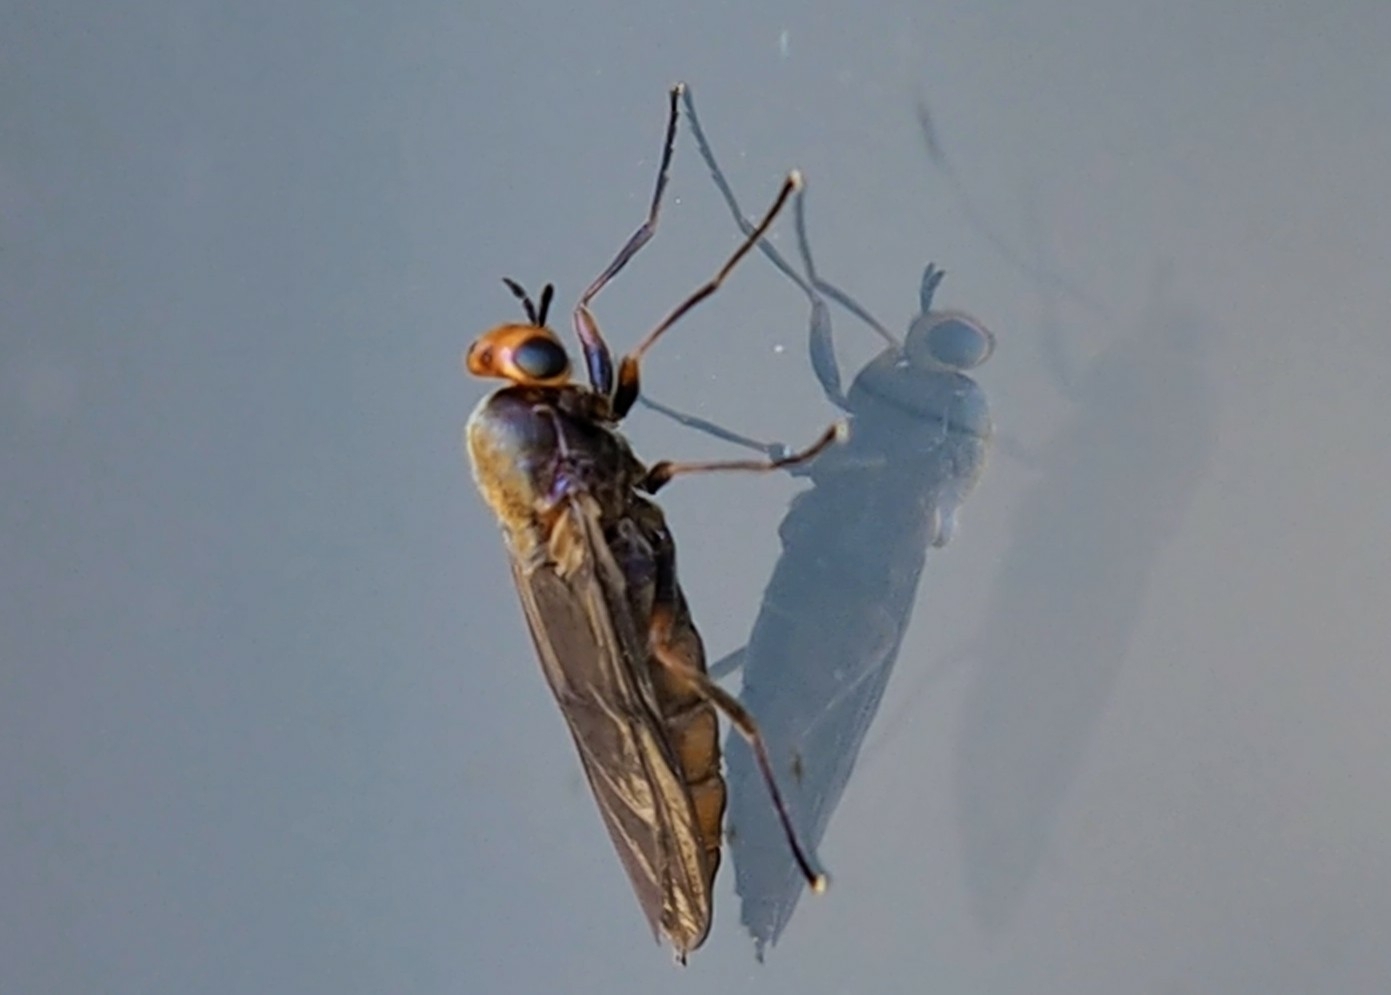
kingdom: Animalia
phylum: Arthropoda
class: Insecta
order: Diptera
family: Stratiomyidae
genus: Inopus
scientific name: Inopus
